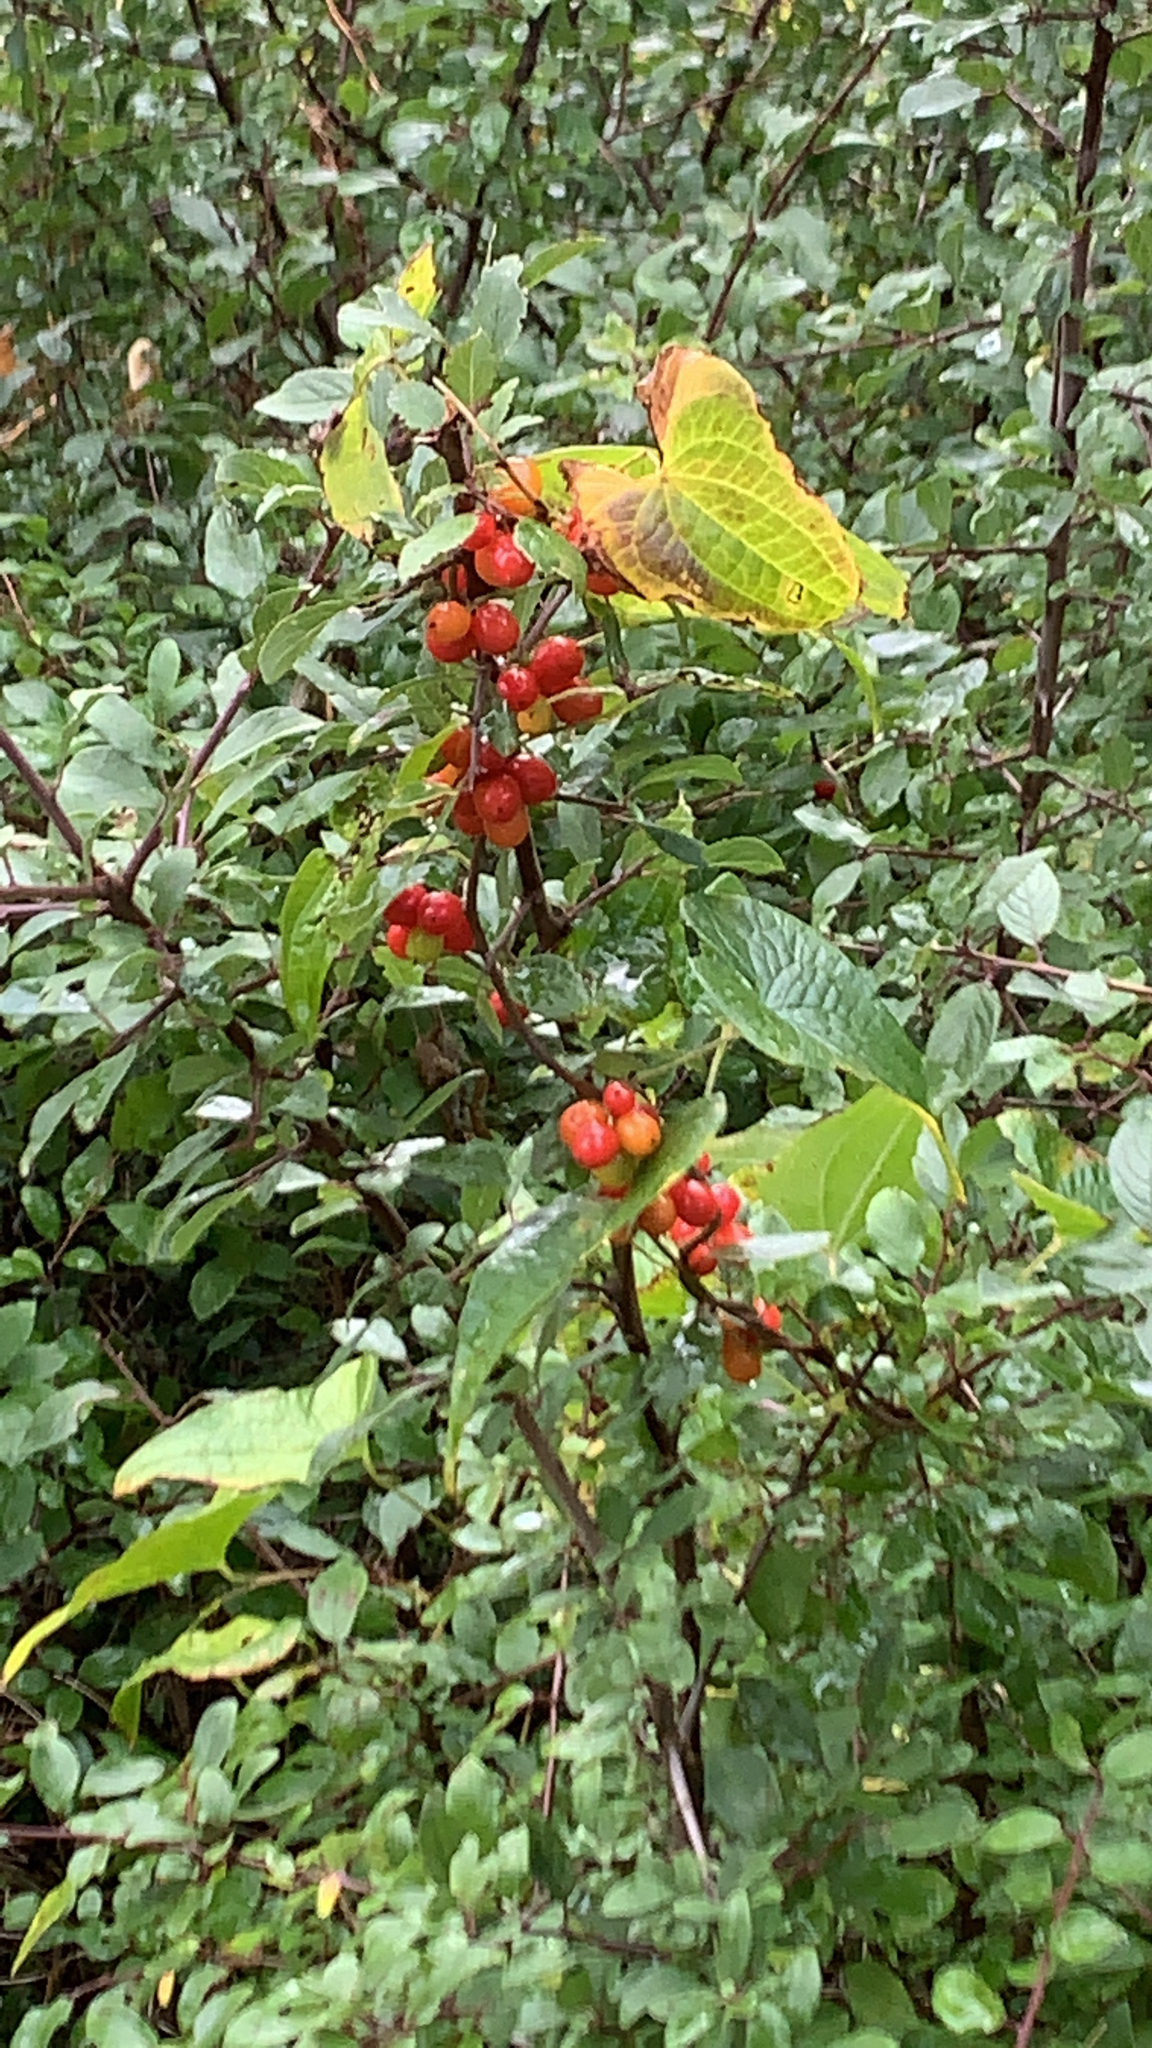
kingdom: Plantae
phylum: Tracheophyta
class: Liliopsida
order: Dioscoreales
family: Dioscoreaceae
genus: Dioscorea
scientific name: Dioscorea communis
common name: Black-bindweed
